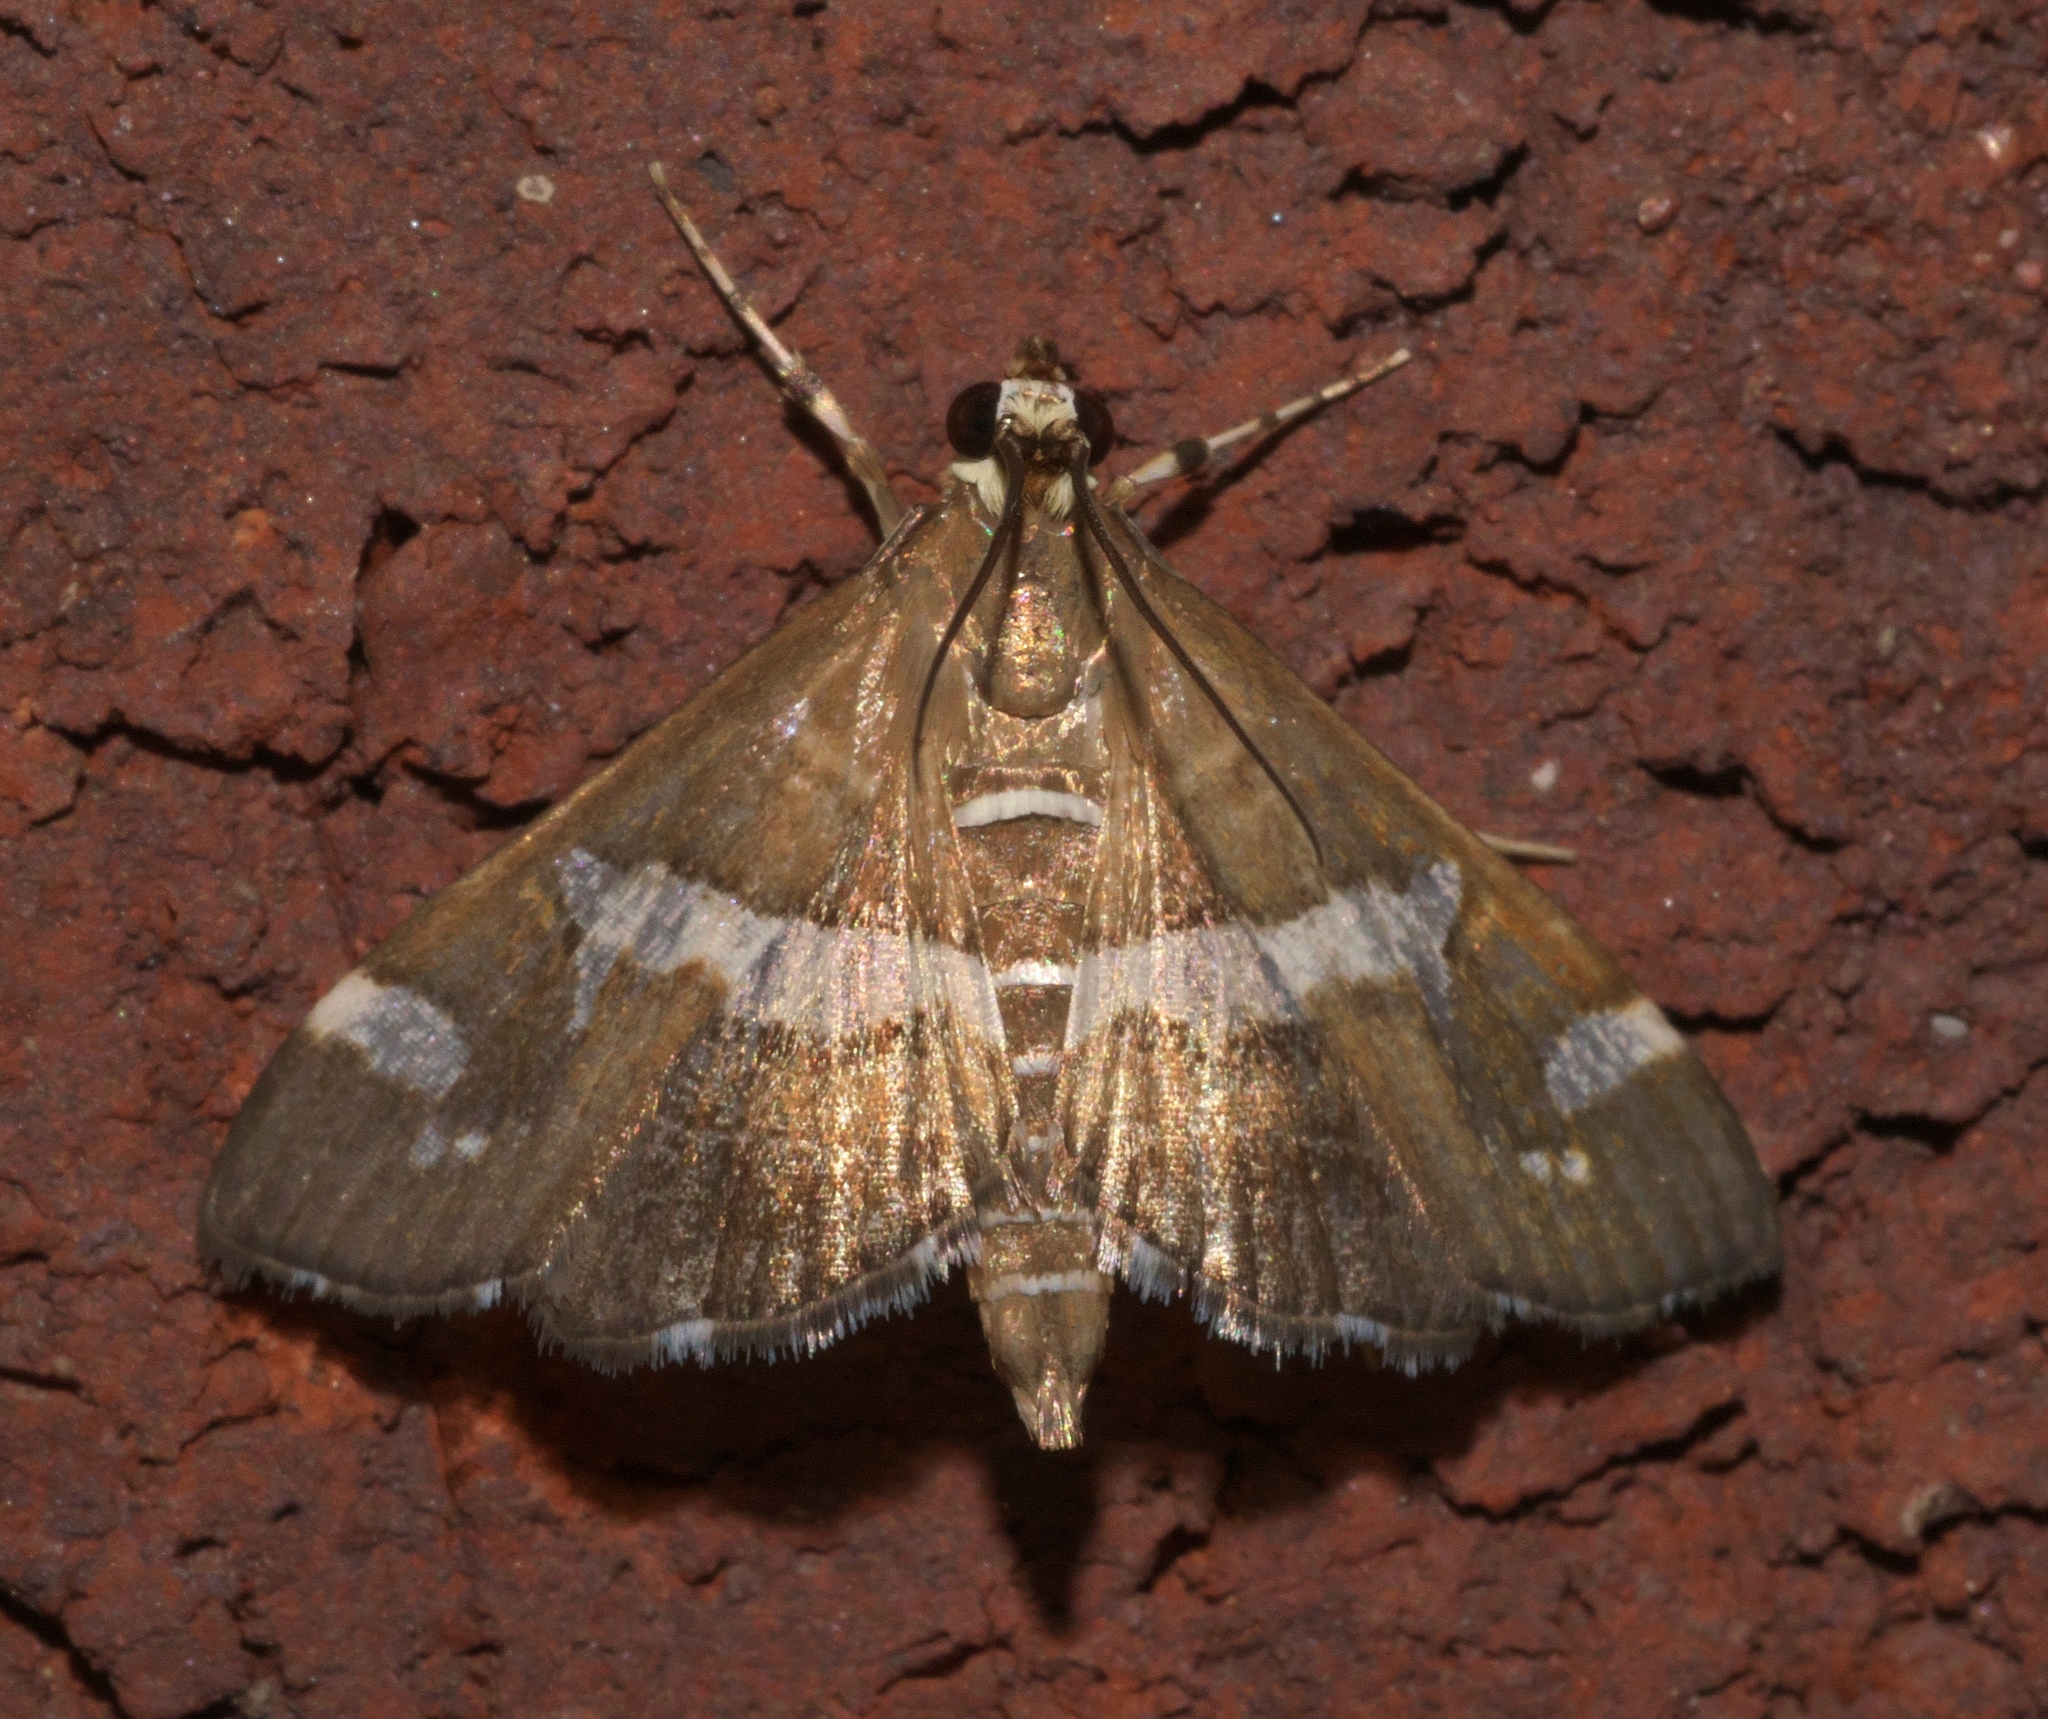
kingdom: Animalia
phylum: Arthropoda
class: Insecta
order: Lepidoptera
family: Crambidae
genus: Spoladea
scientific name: Spoladea recurvalis
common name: Beet webworm moth
